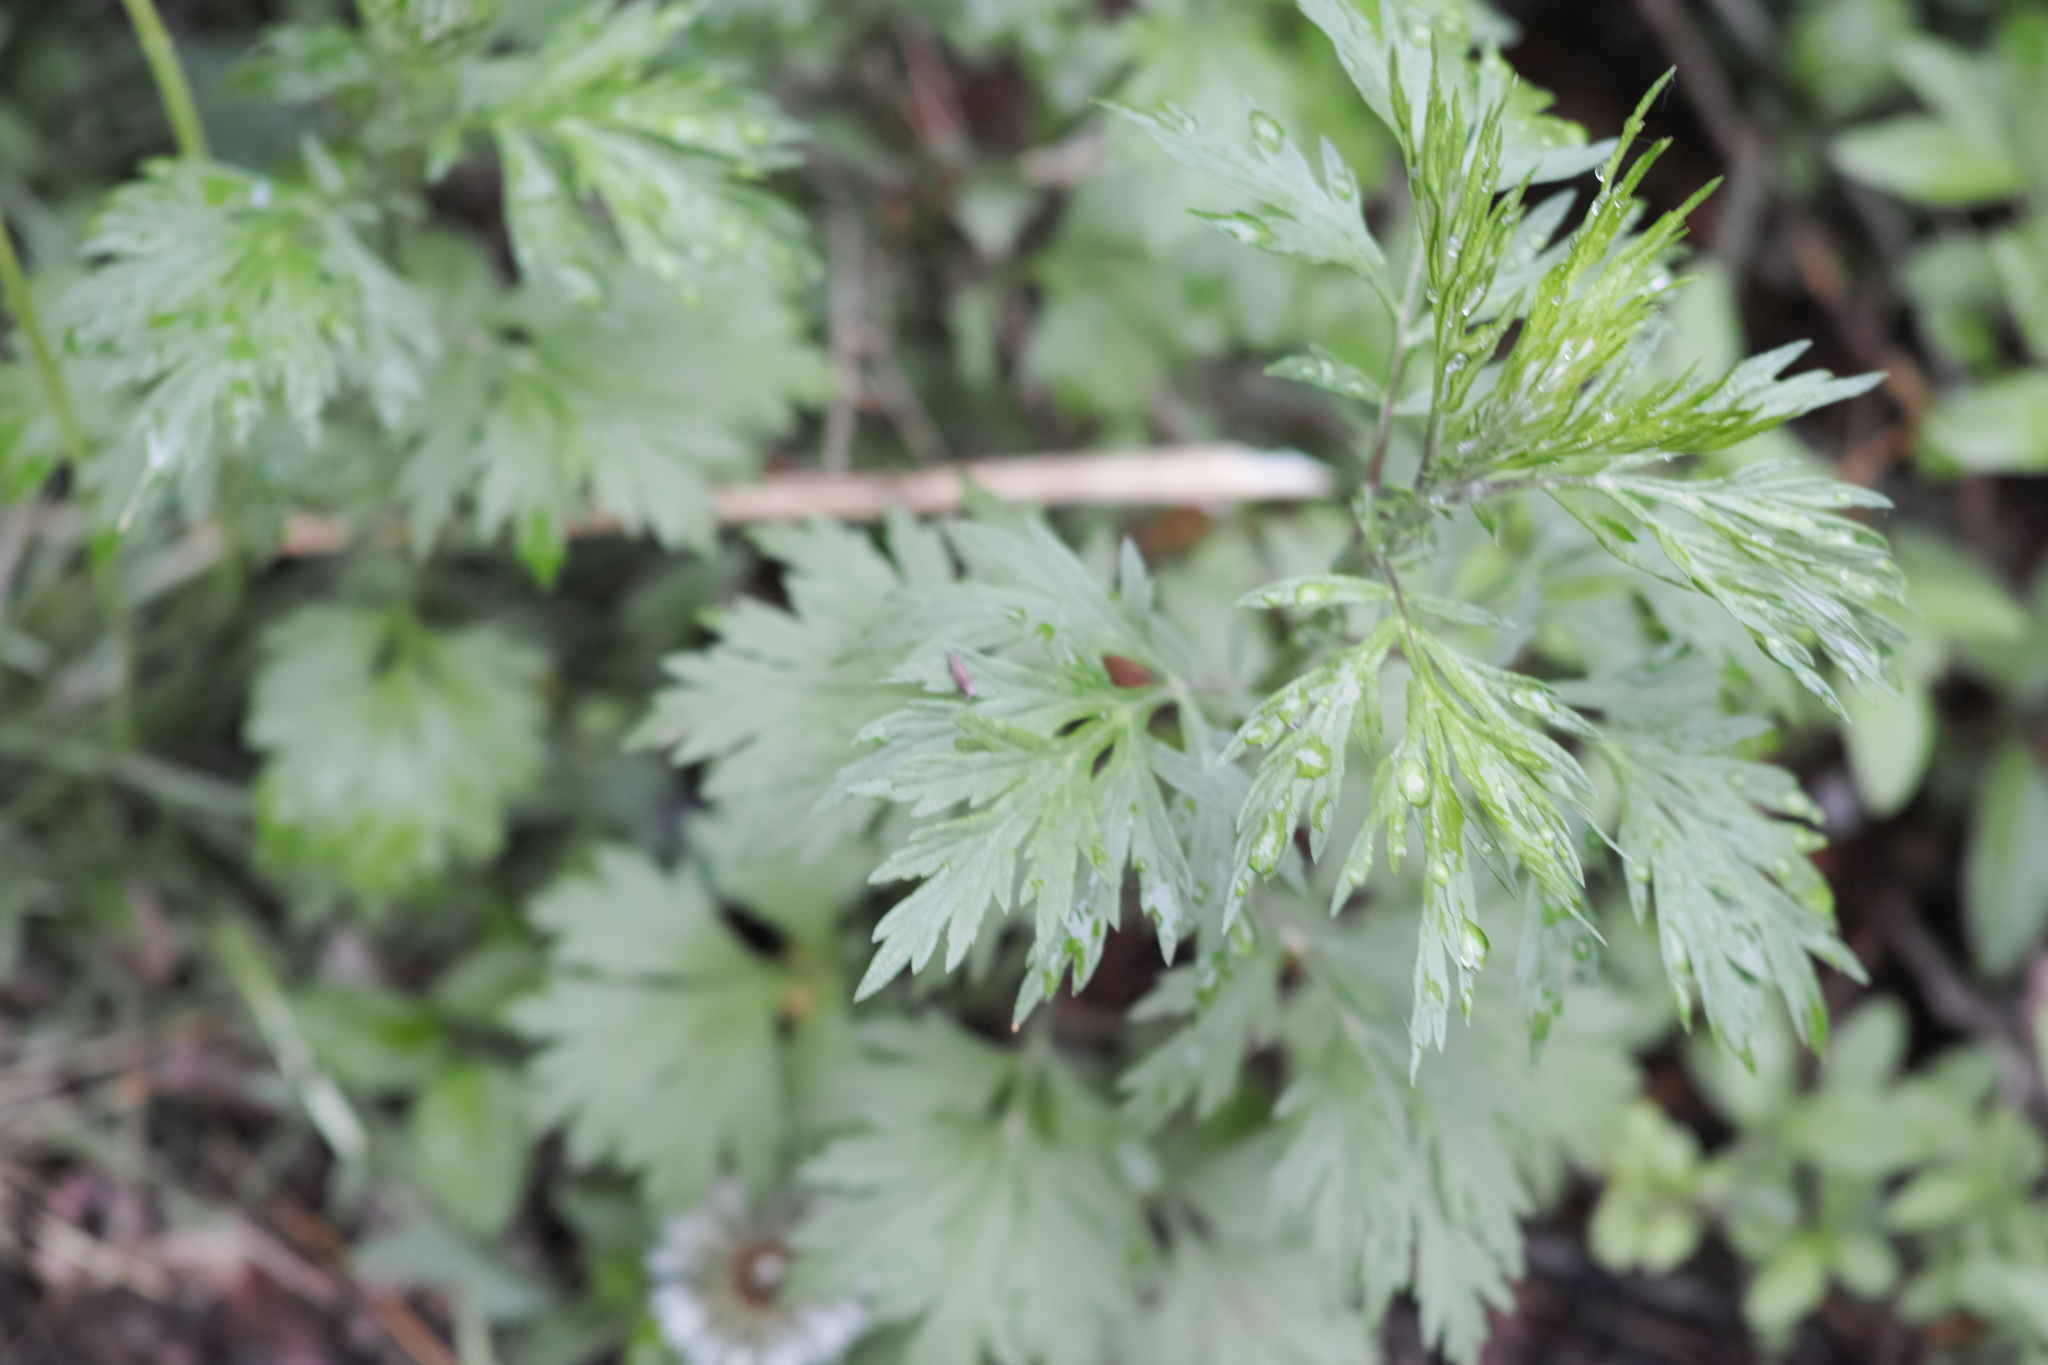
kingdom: Plantae
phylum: Tracheophyta
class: Magnoliopsida
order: Asterales
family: Asteraceae
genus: Artemisia
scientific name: Artemisia vulgaris
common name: Mugwort
